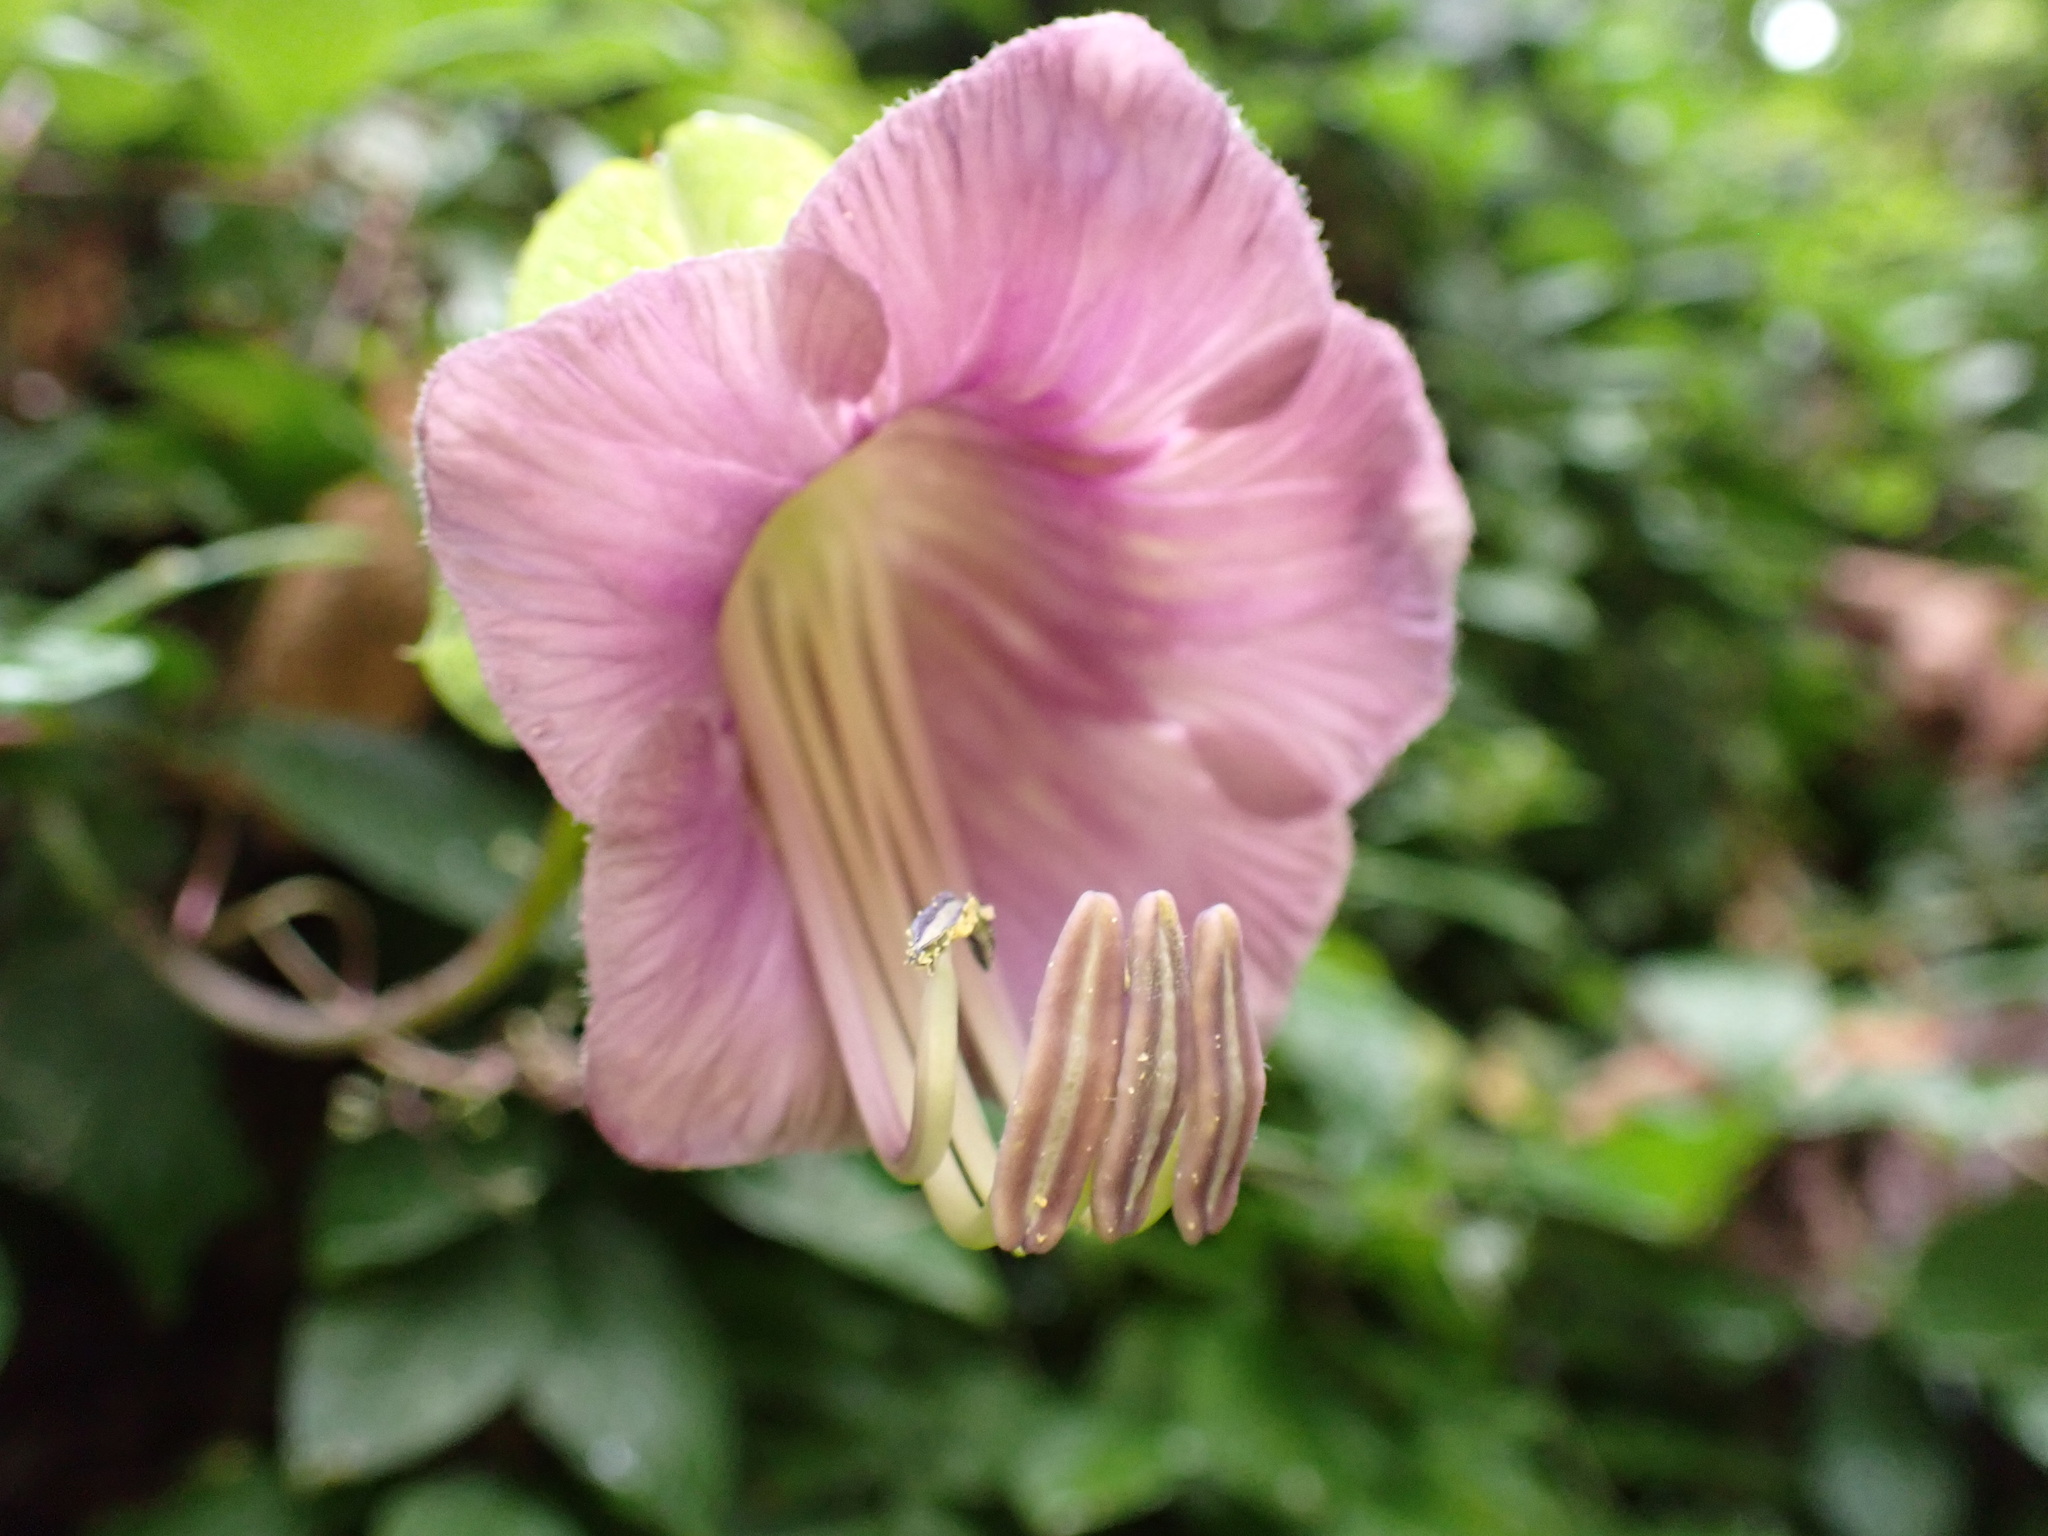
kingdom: Plantae
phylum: Tracheophyta
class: Magnoliopsida
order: Ericales
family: Polemoniaceae
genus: Cobaea
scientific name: Cobaea scandens
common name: Cup-and-saucer-vine
